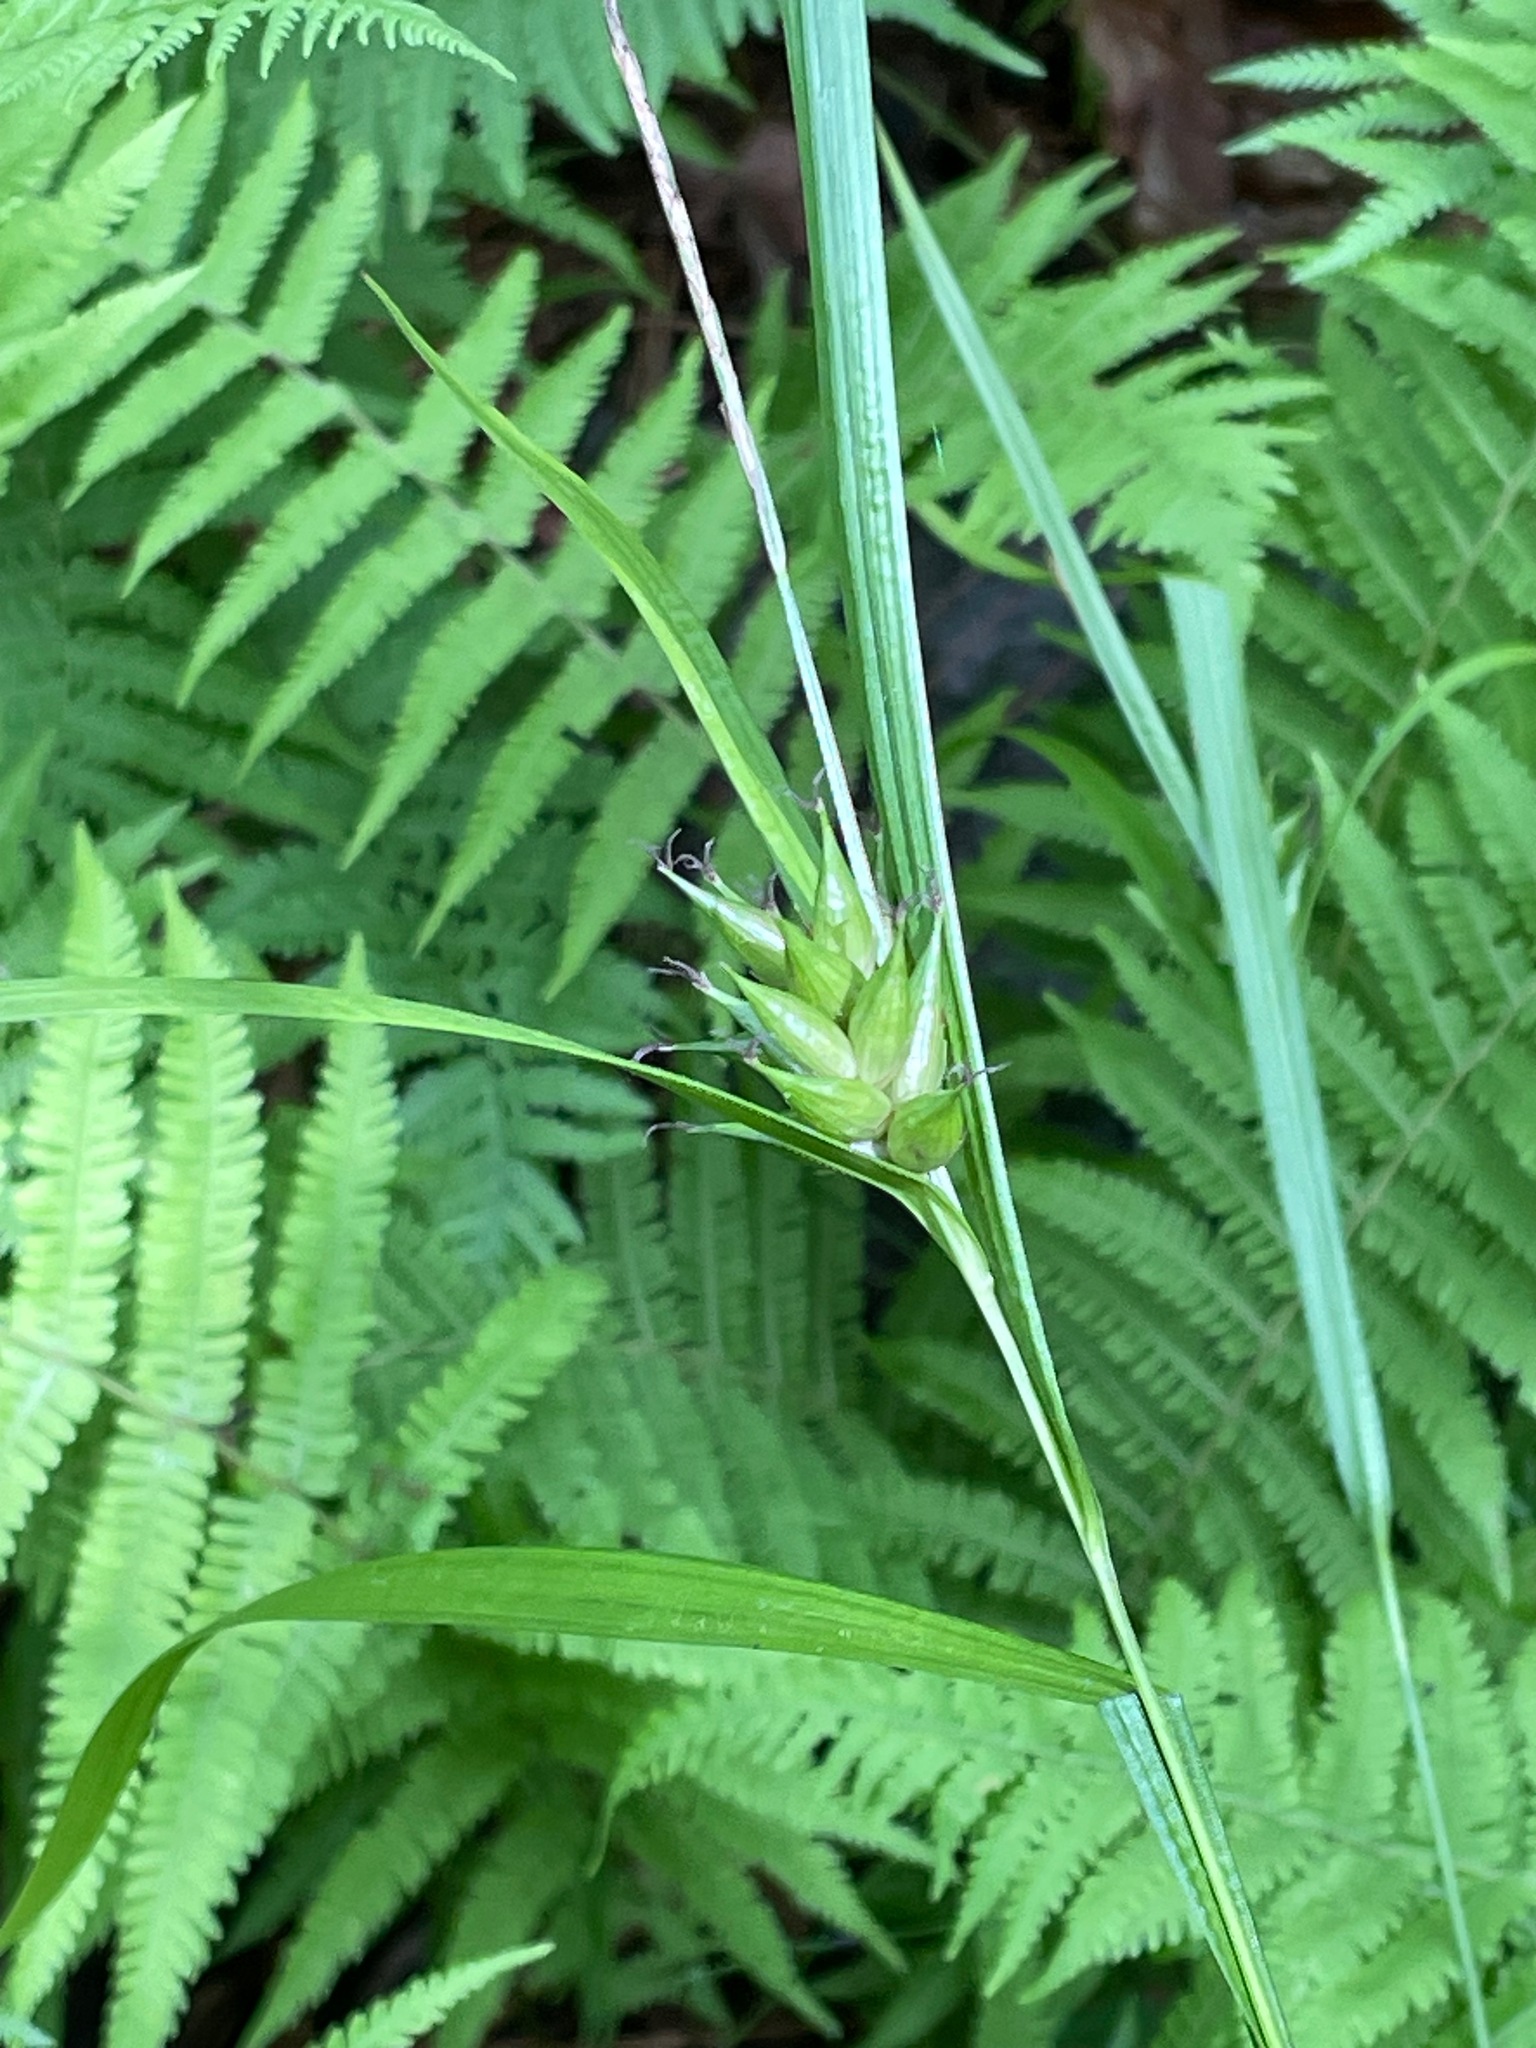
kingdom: Plantae
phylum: Tracheophyta
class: Liliopsida
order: Poales
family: Cyperaceae
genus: Carex
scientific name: Carex intumescens
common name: Greater bladder sedge
